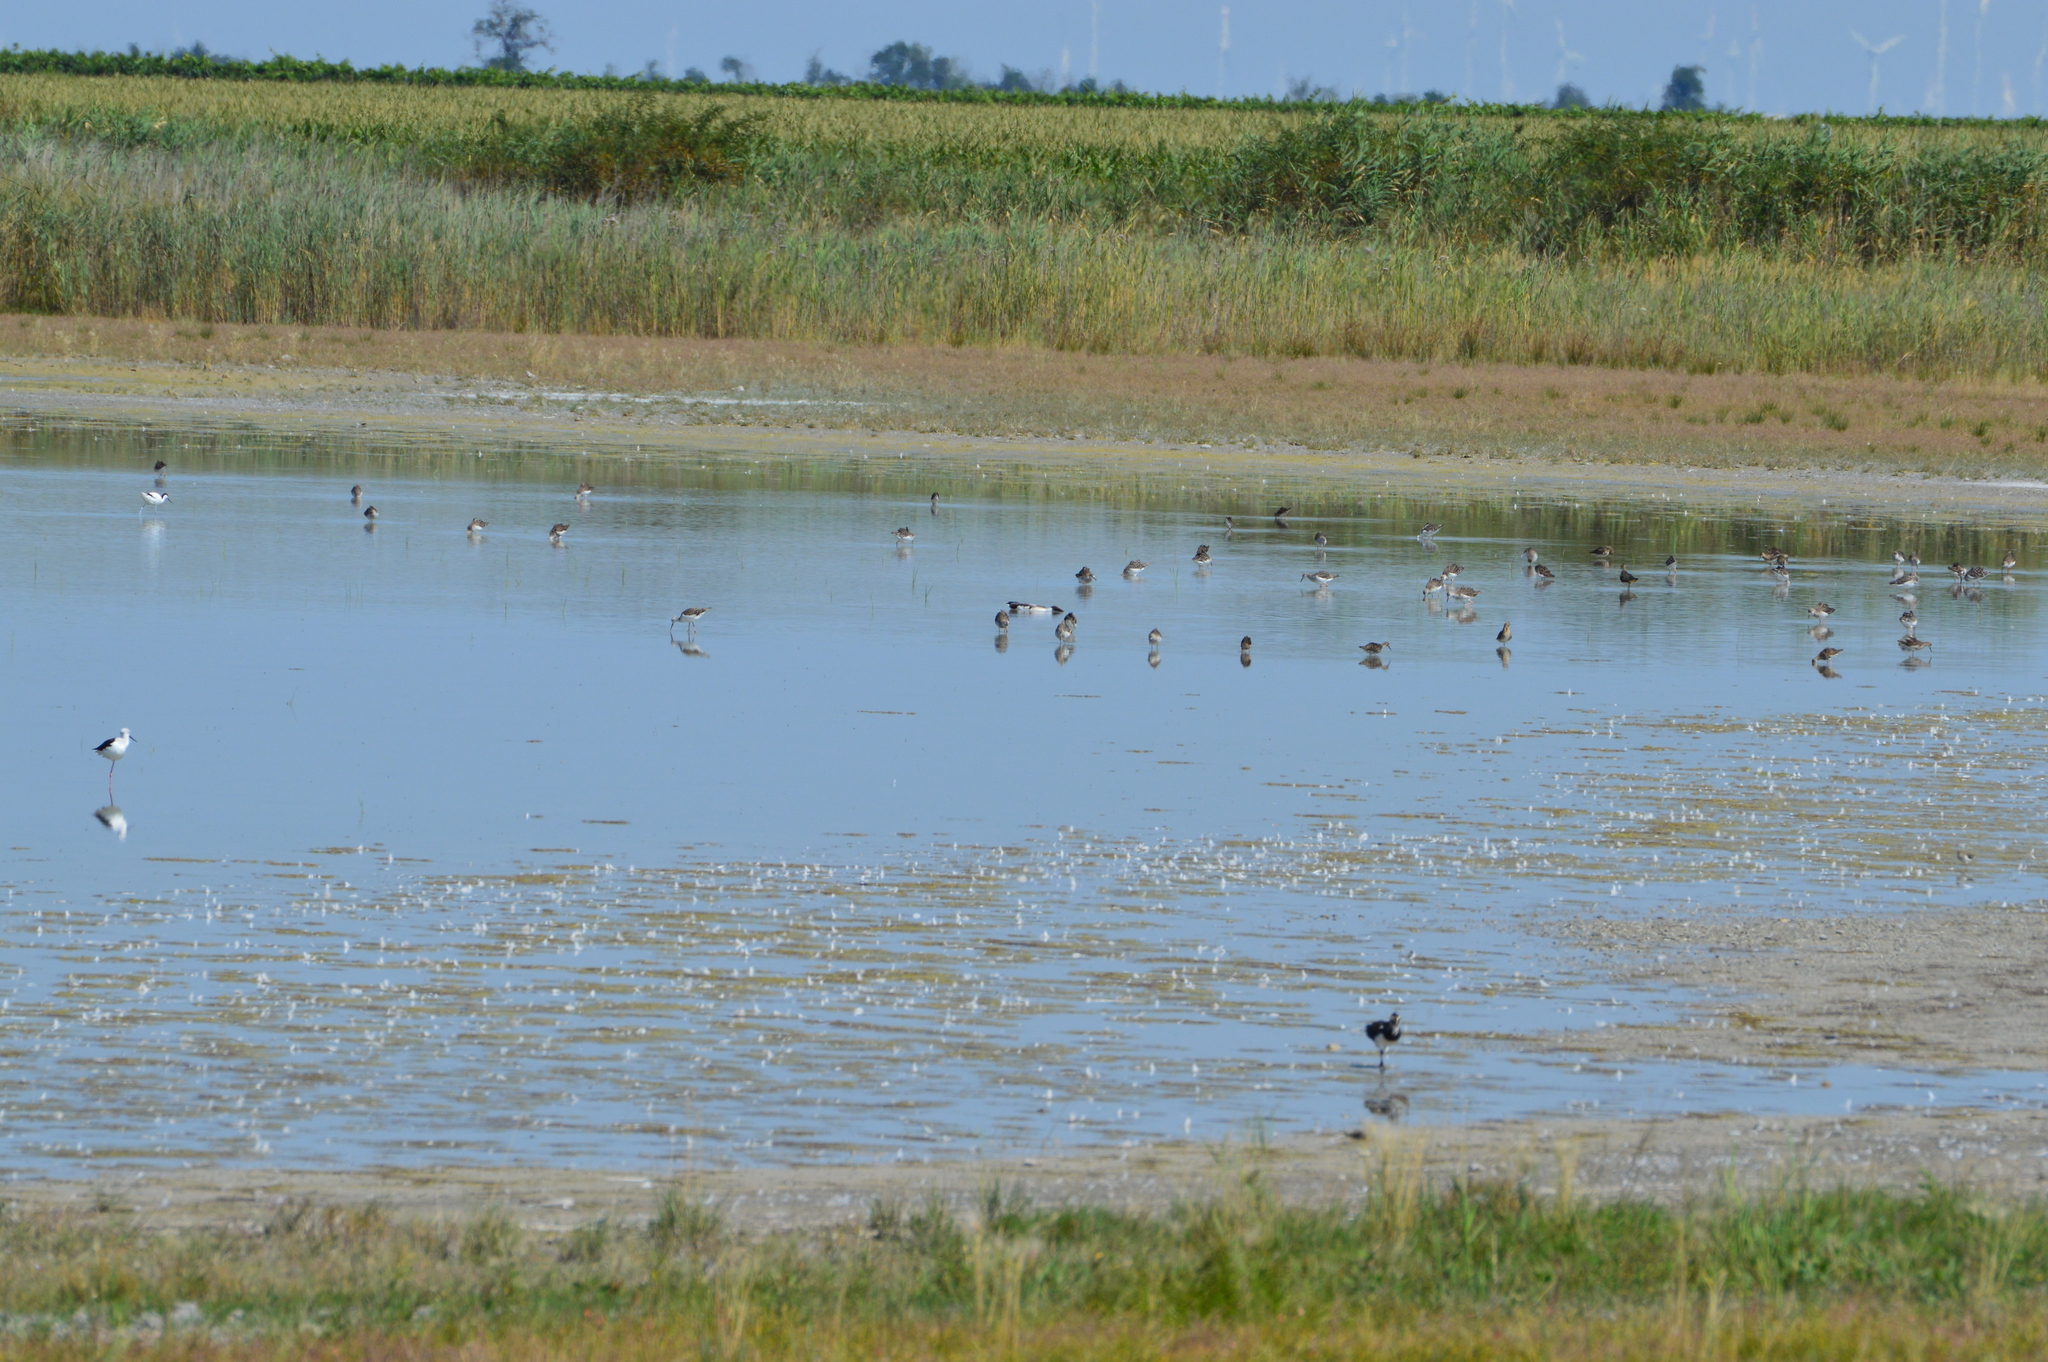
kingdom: Animalia
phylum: Chordata
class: Aves
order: Charadriiformes
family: Scolopacidae
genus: Calidris
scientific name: Calidris pugnax
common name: Ruff
